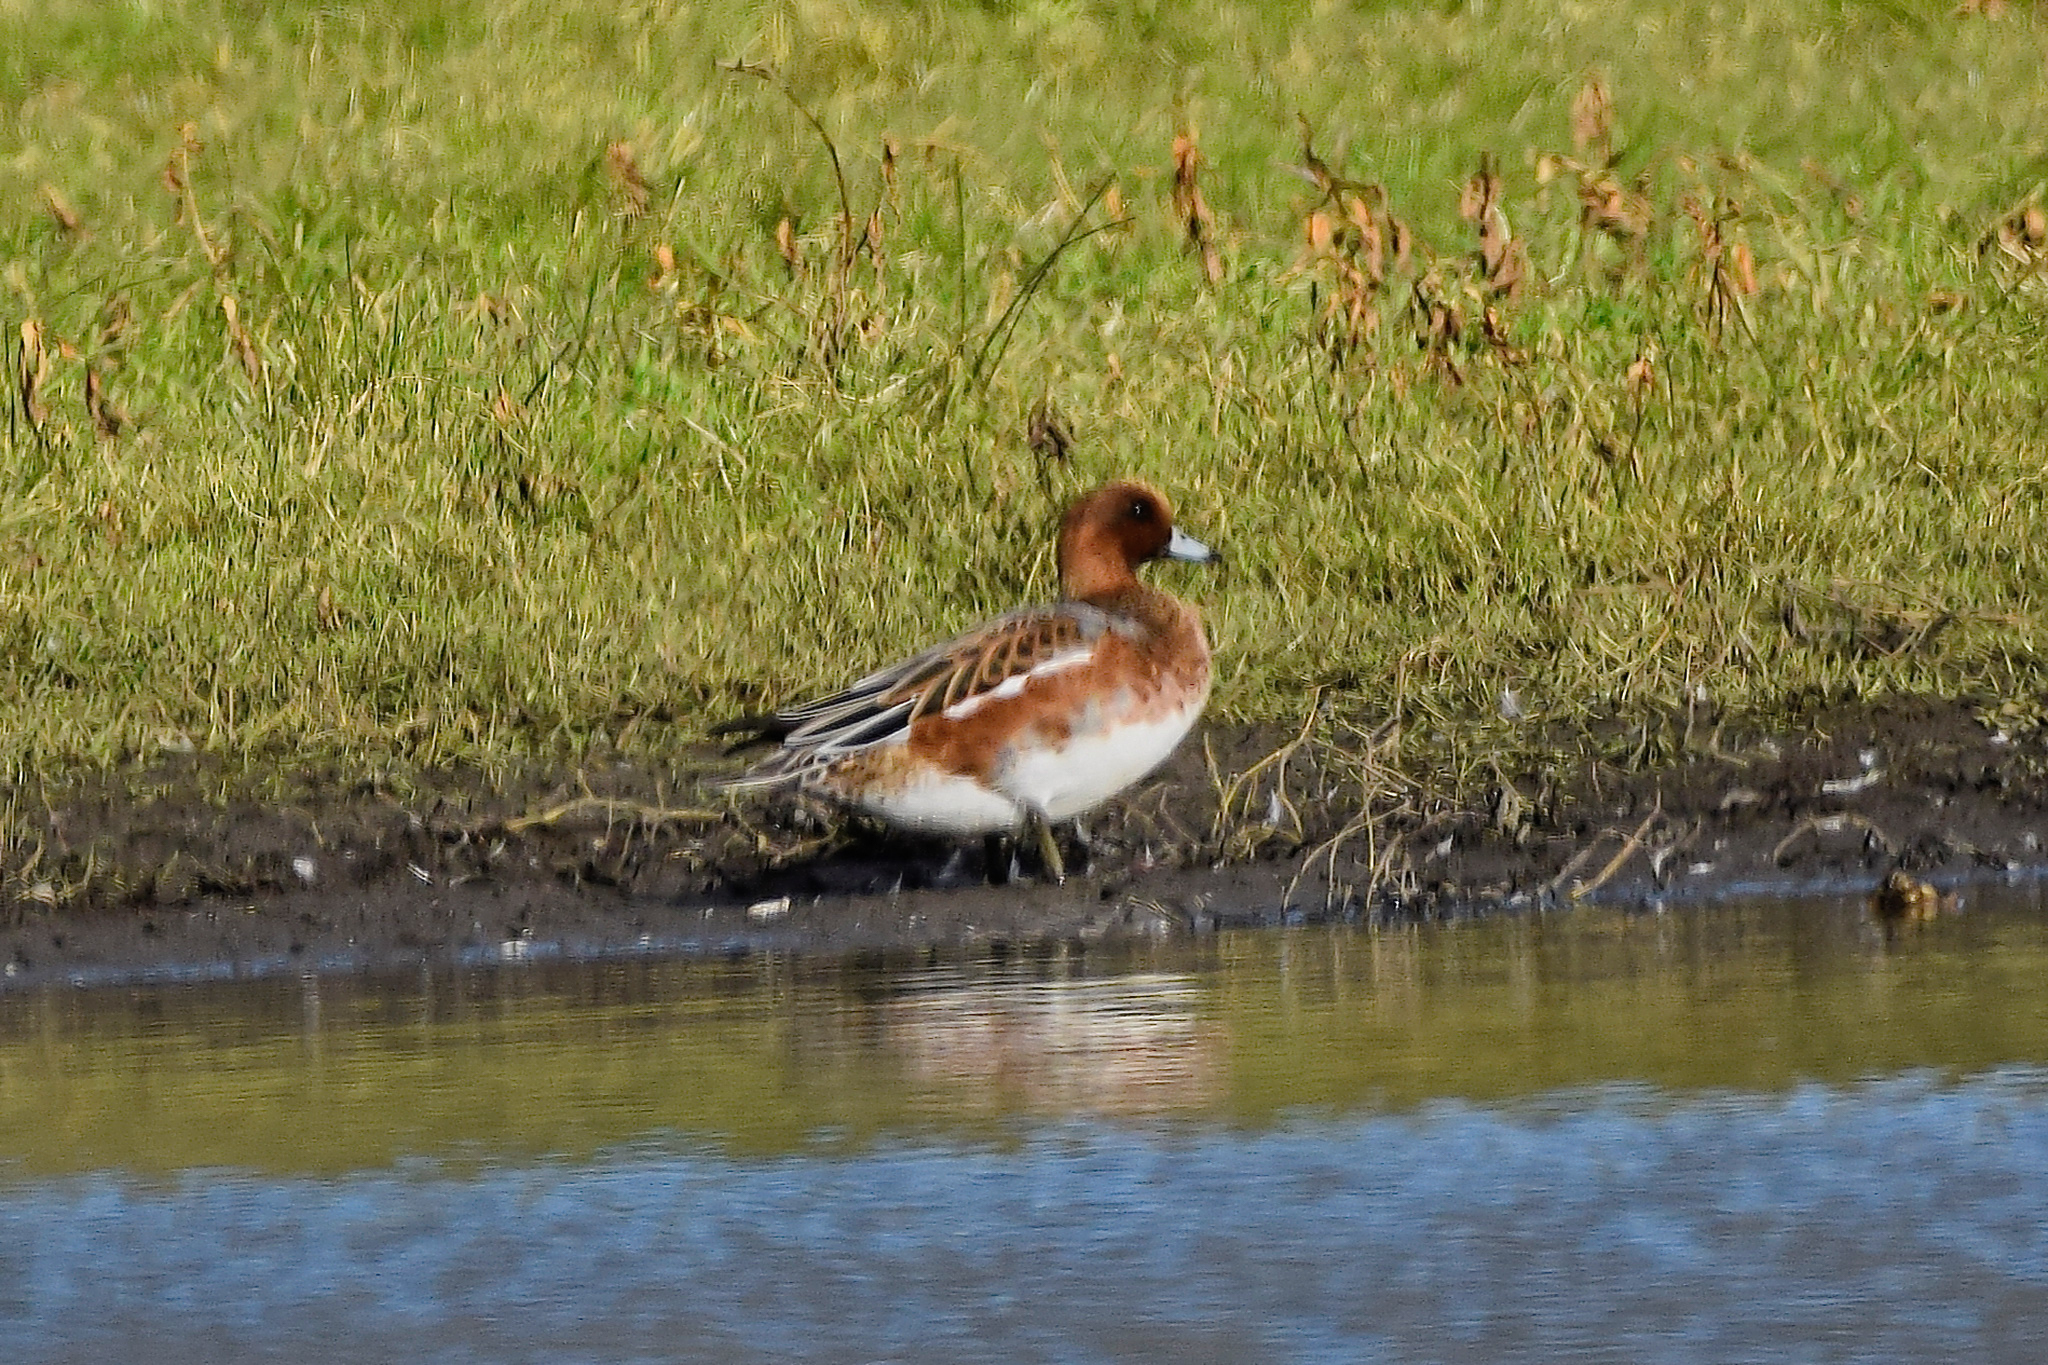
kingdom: Animalia
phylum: Chordata
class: Aves
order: Anseriformes
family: Anatidae
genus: Mareca
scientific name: Mareca penelope
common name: Eurasian wigeon
